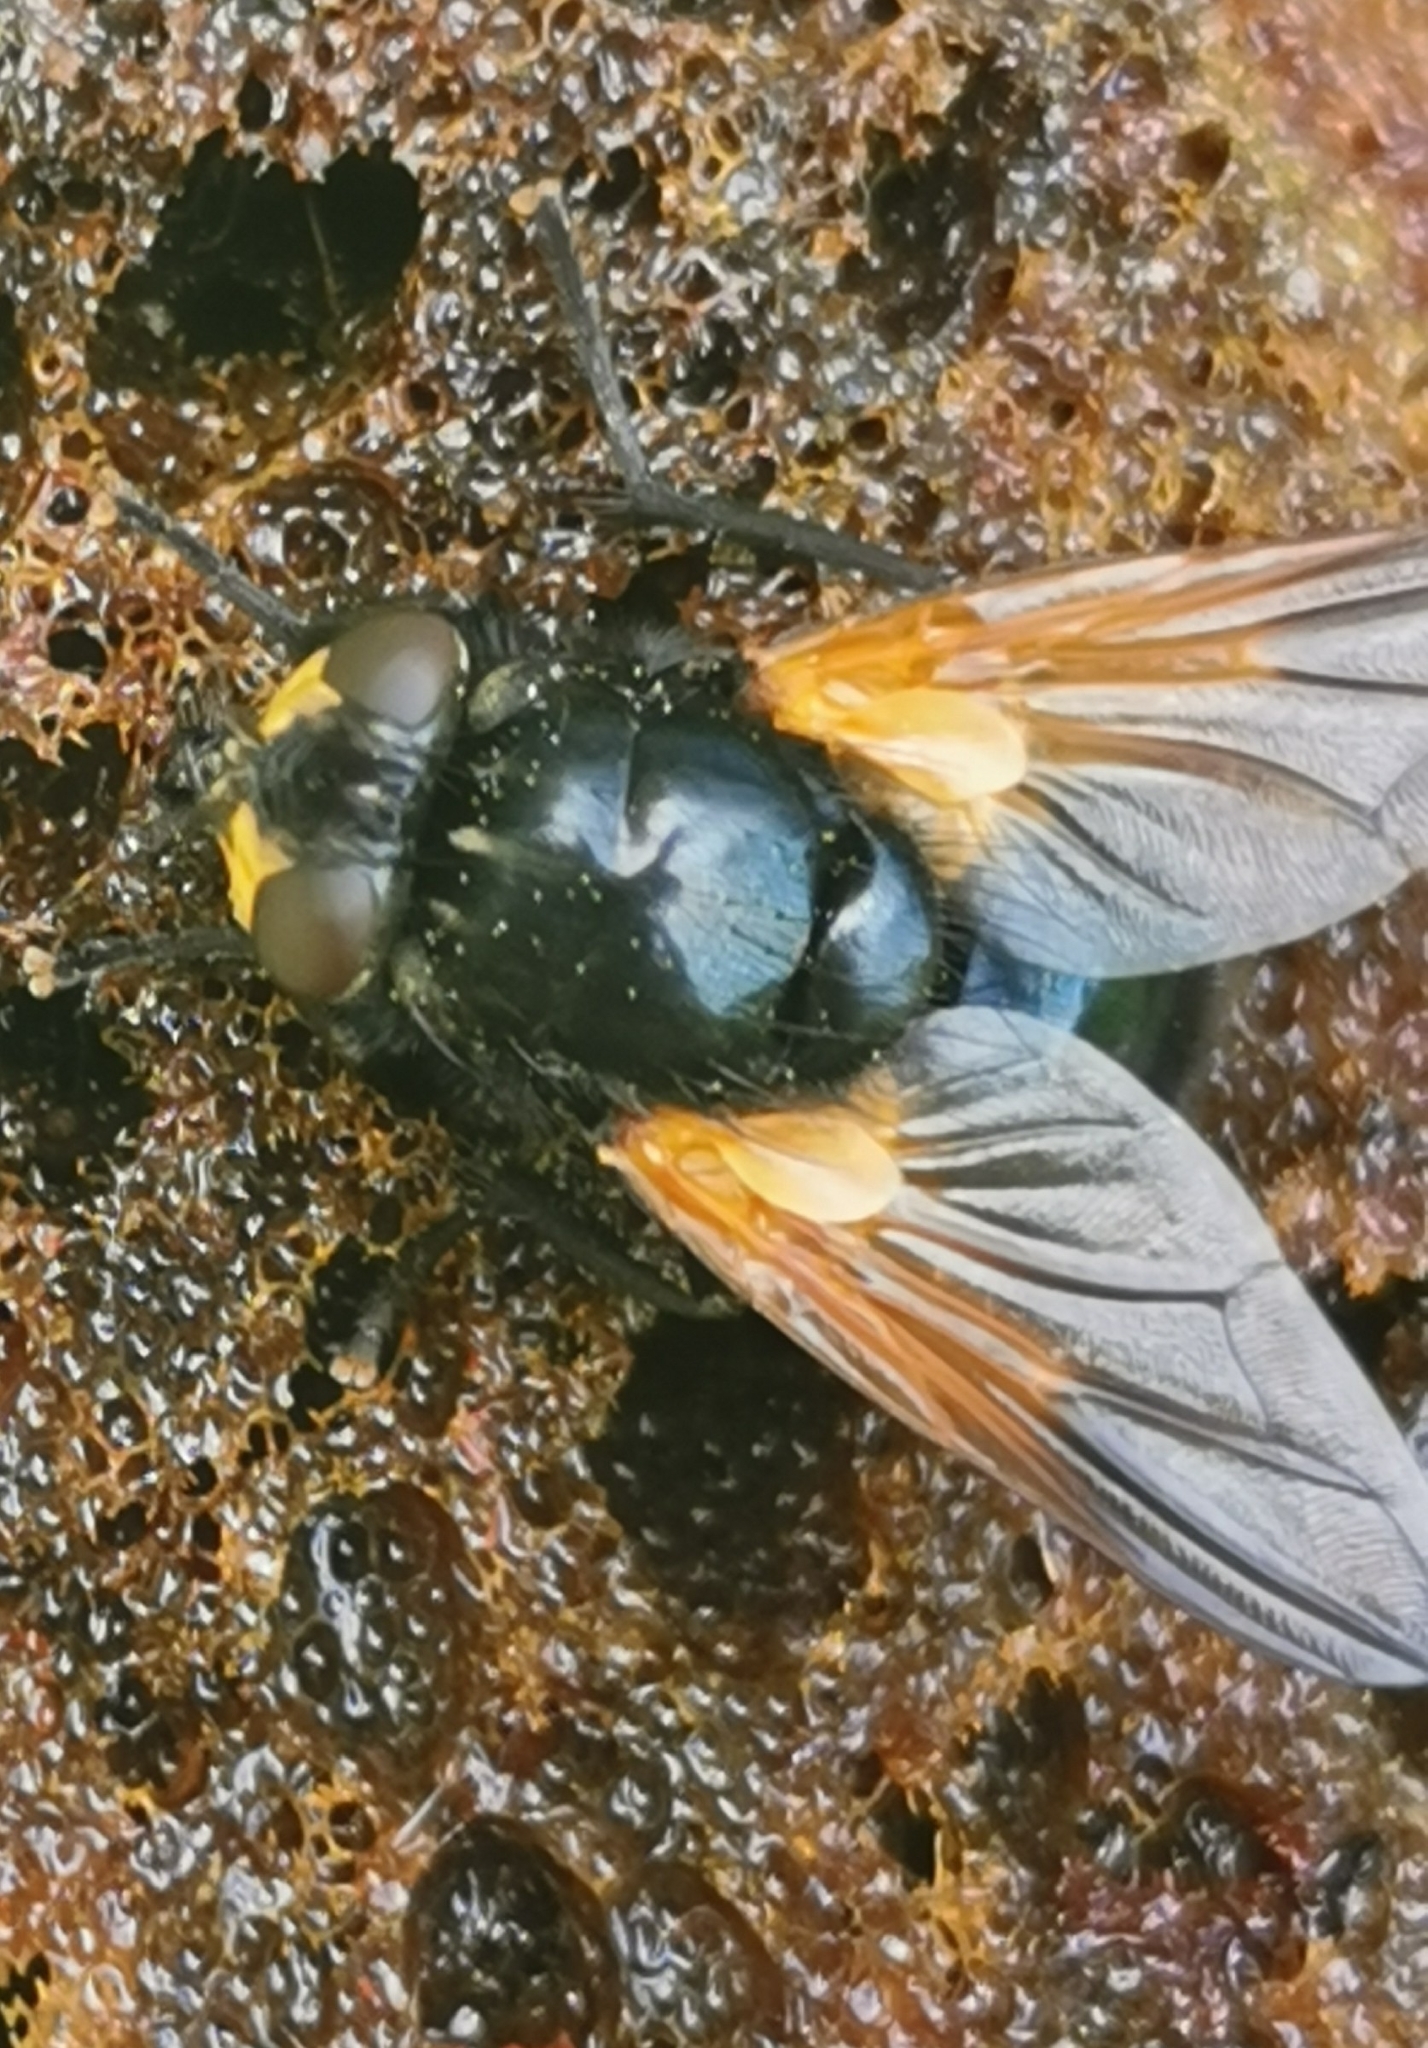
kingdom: Animalia
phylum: Arthropoda
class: Insecta
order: Diptera
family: Muscidae
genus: Mesembrina
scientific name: Mesembrina meridiana
